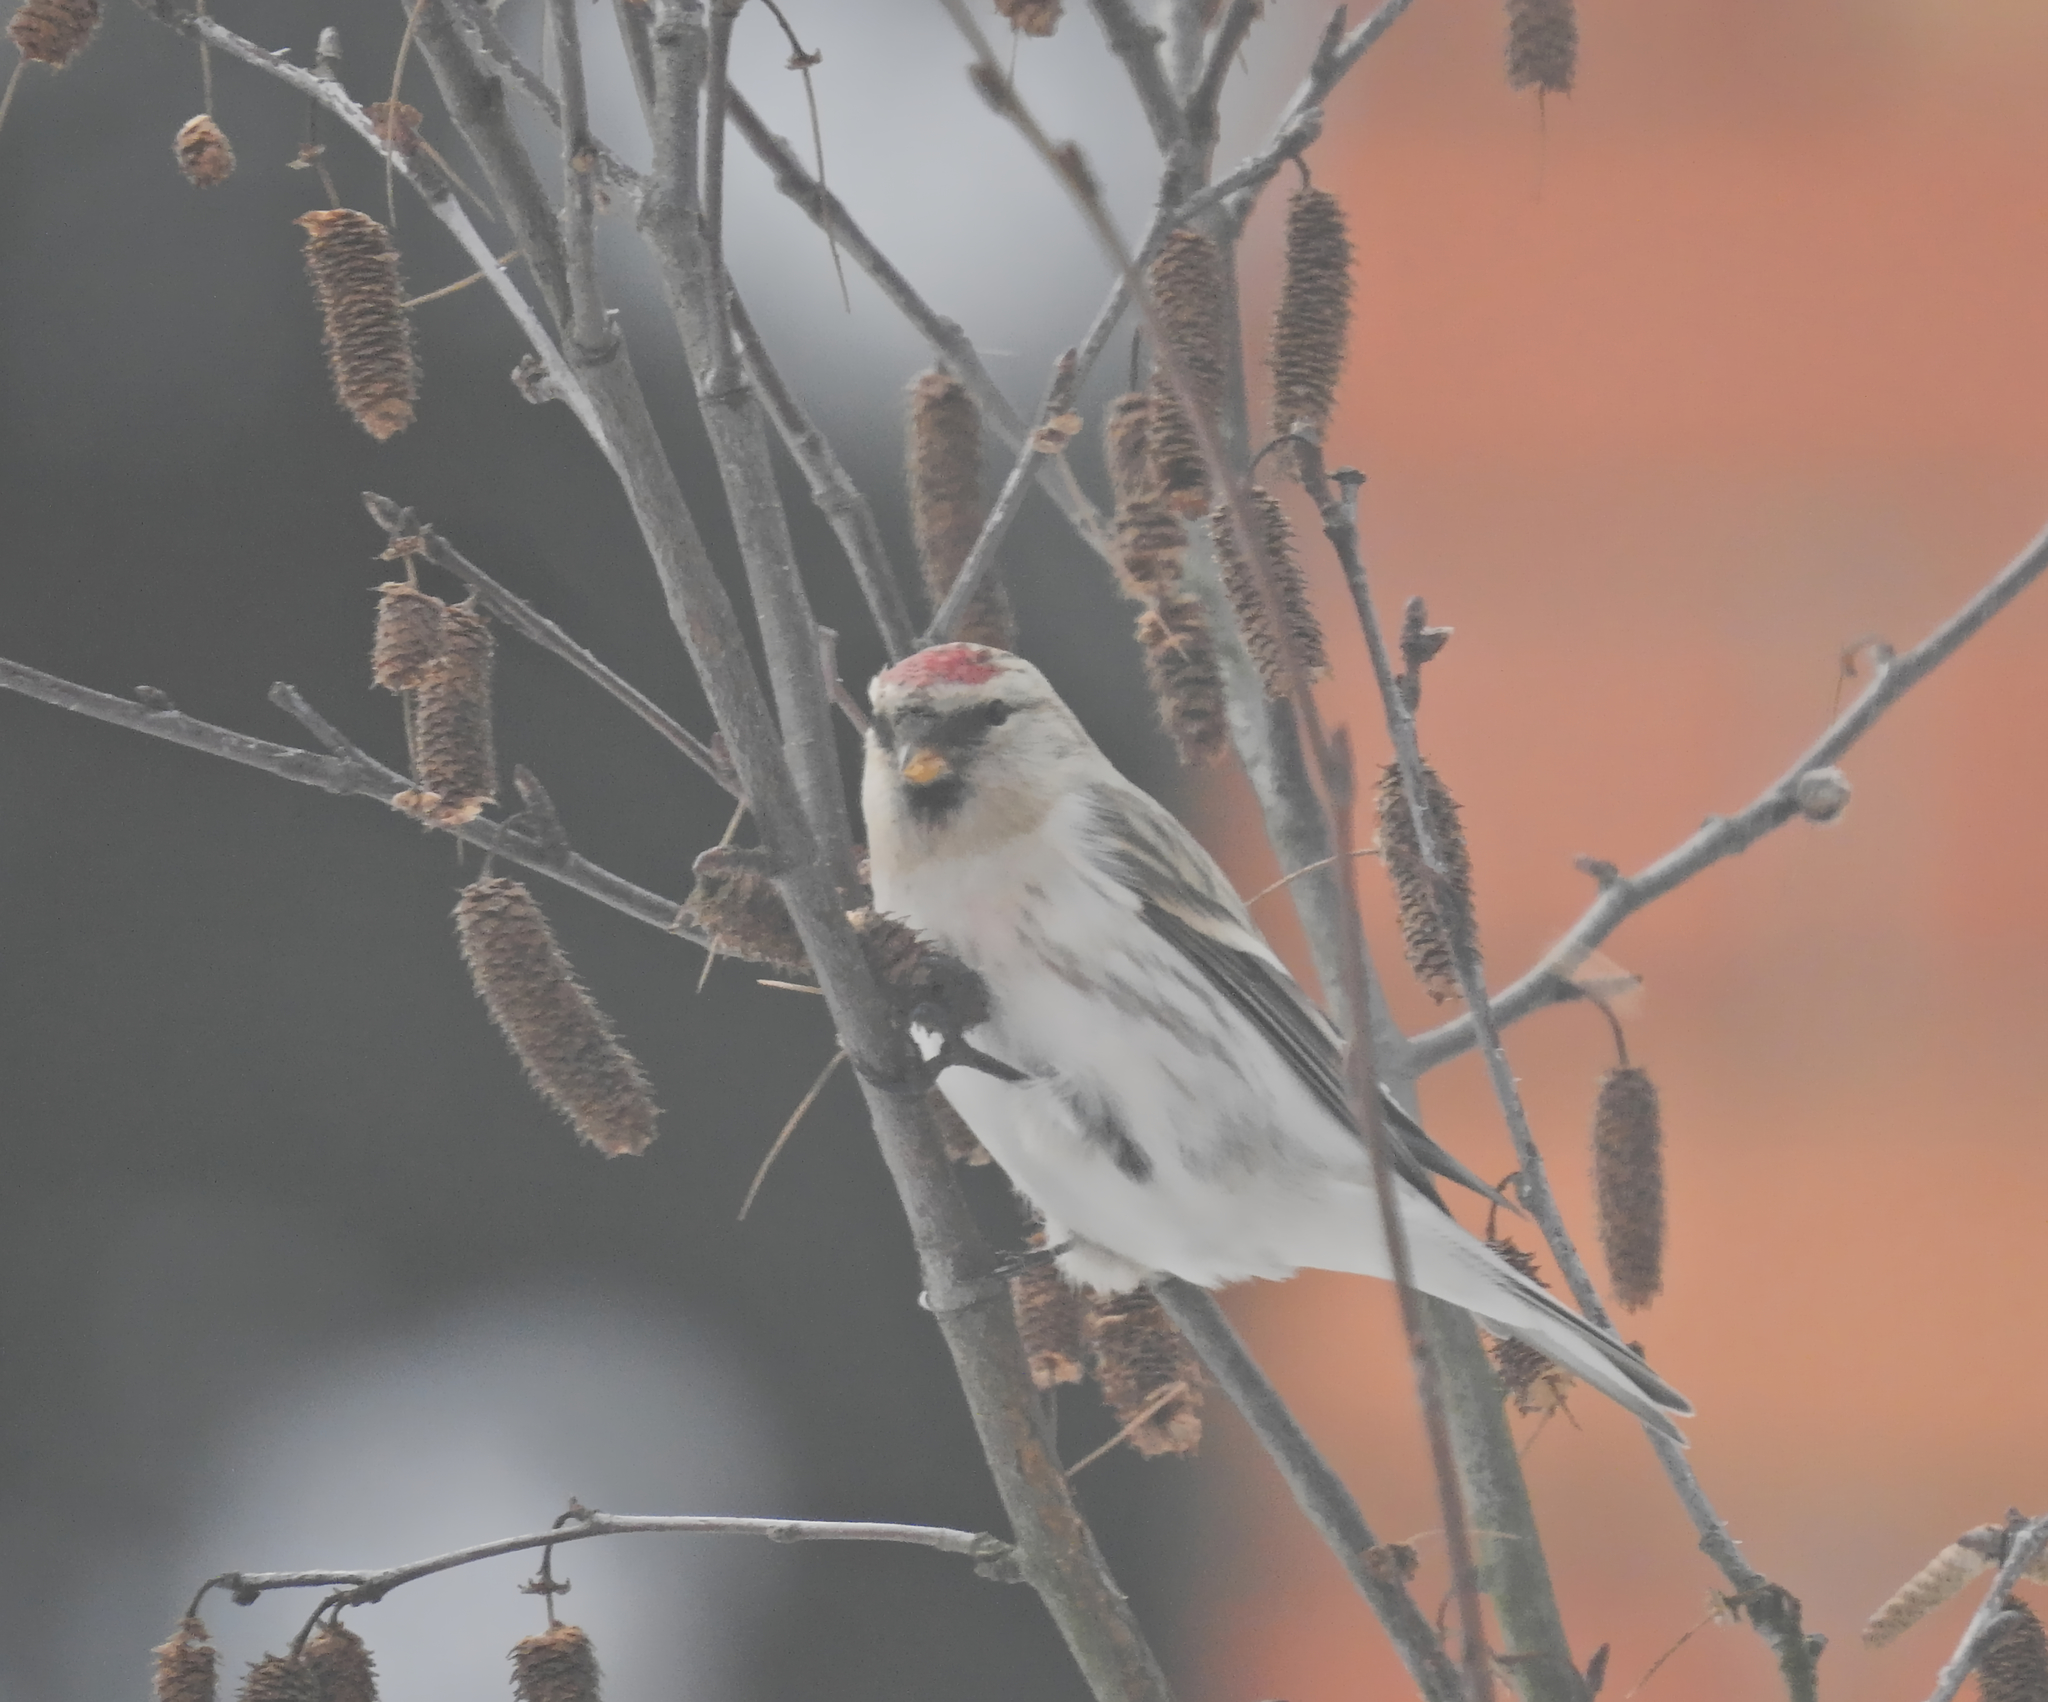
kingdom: Animalia
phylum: Chordata
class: Aves
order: Passeriformes
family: Fringillidae
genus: Acanthis
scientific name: Acanthis hornemanni
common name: Arctic redpoll
